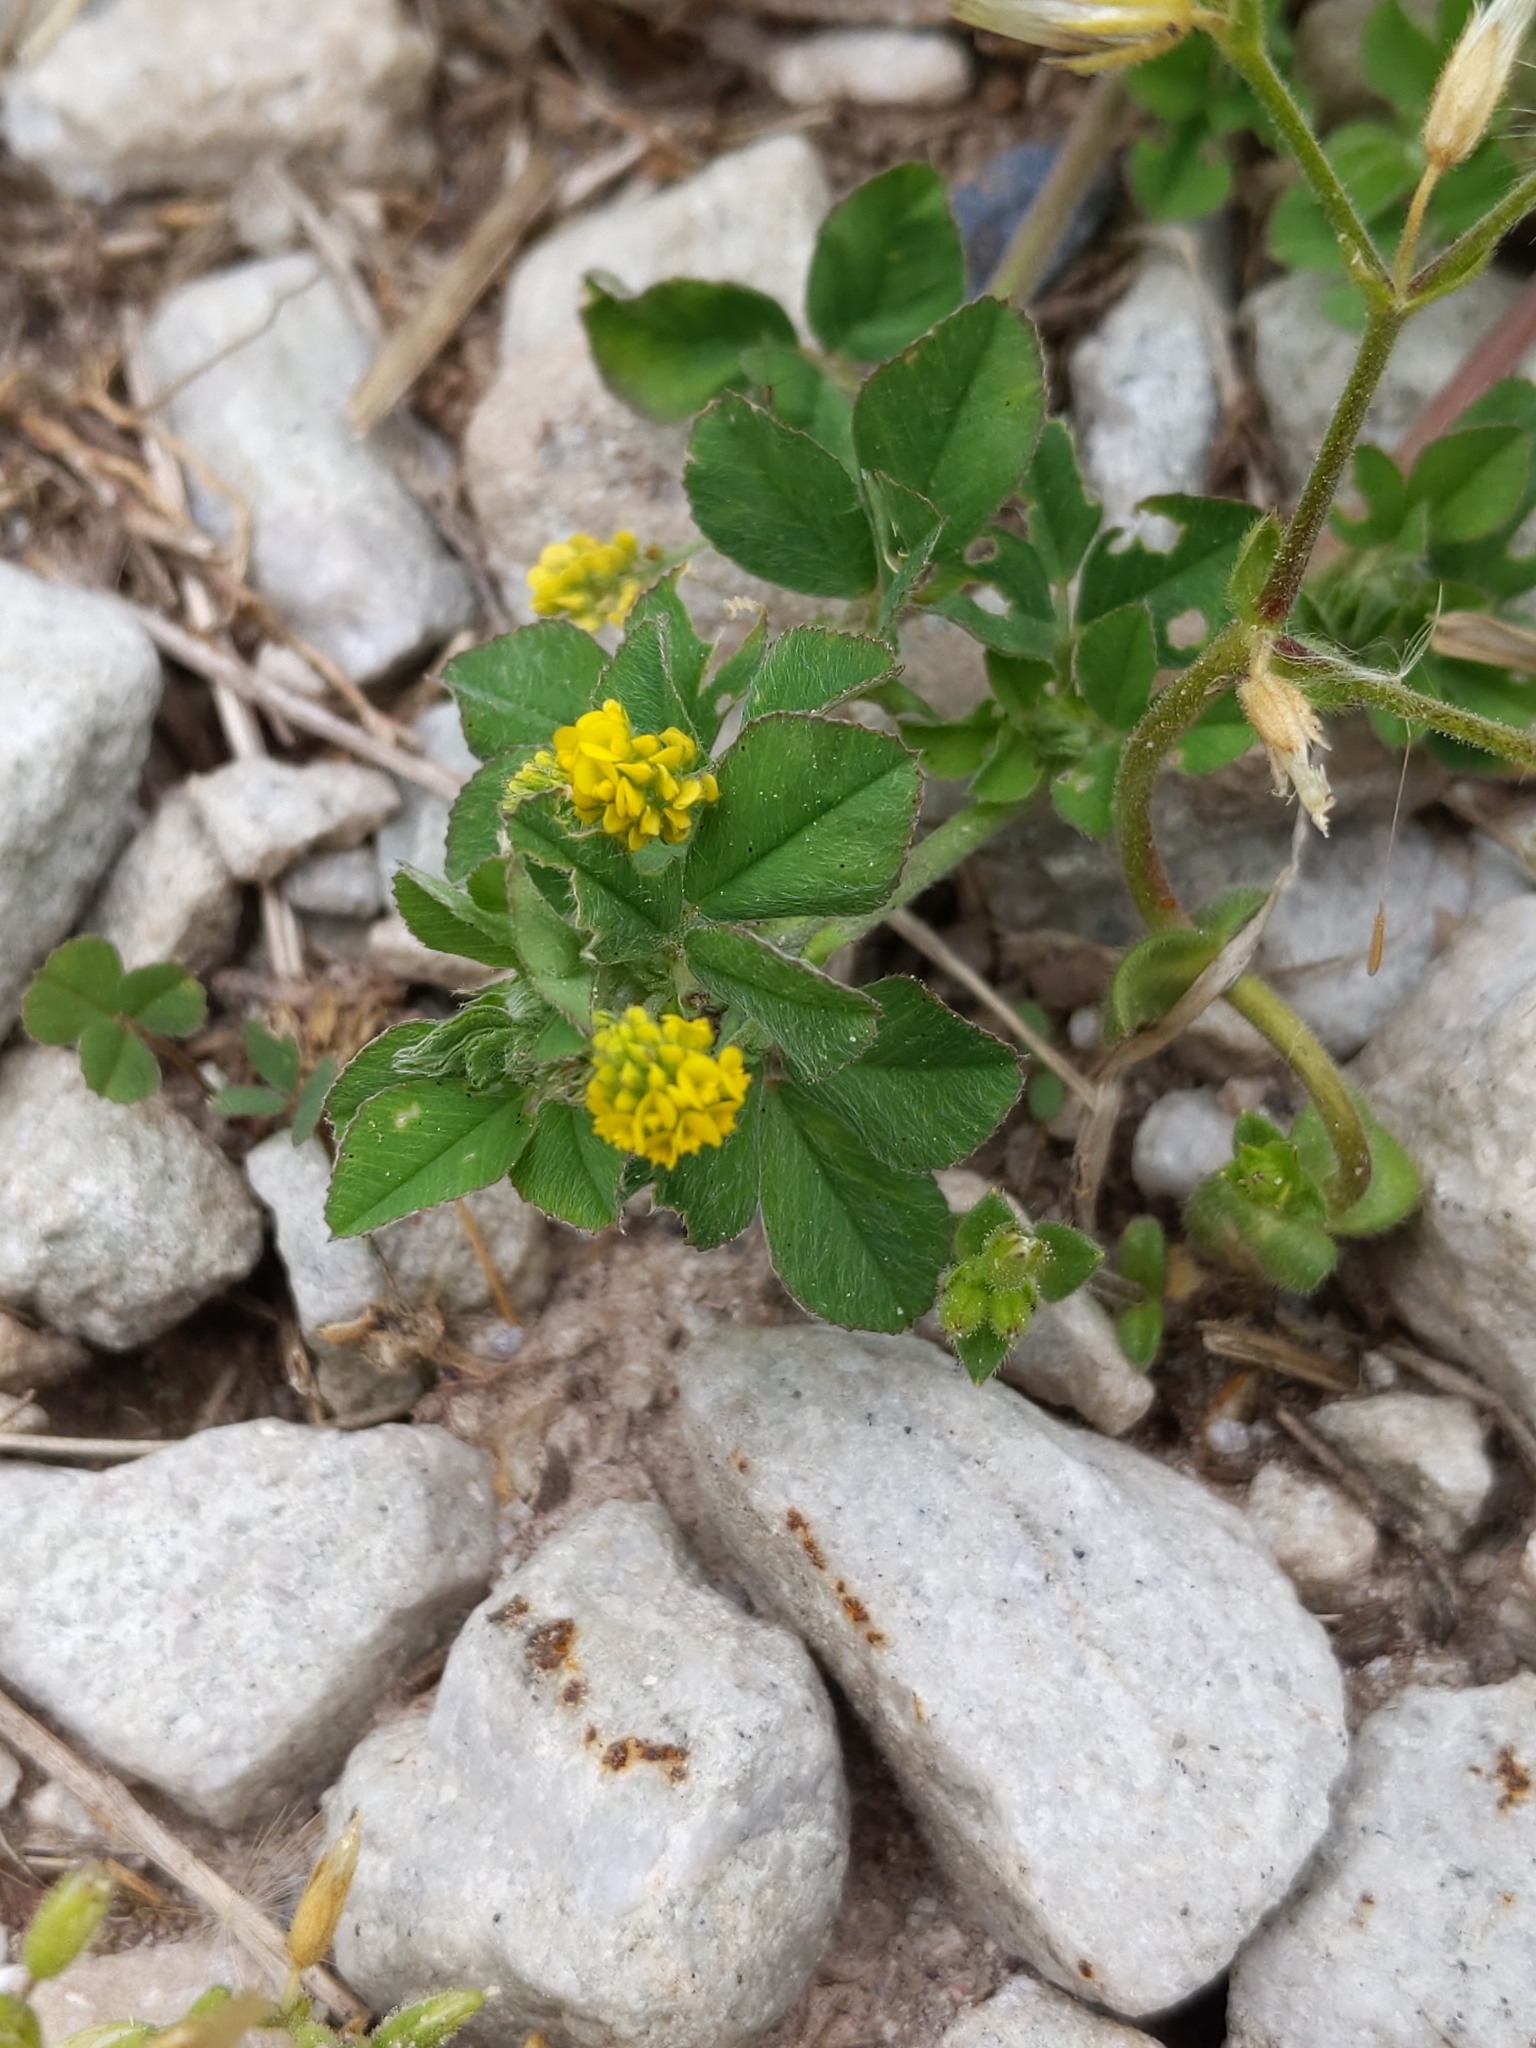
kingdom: Plantae
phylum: Tracheophyta
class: Magnoliopsida
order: Fabales
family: Fabaceae
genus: Medicago
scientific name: Medicago lupulina
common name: Black medick
